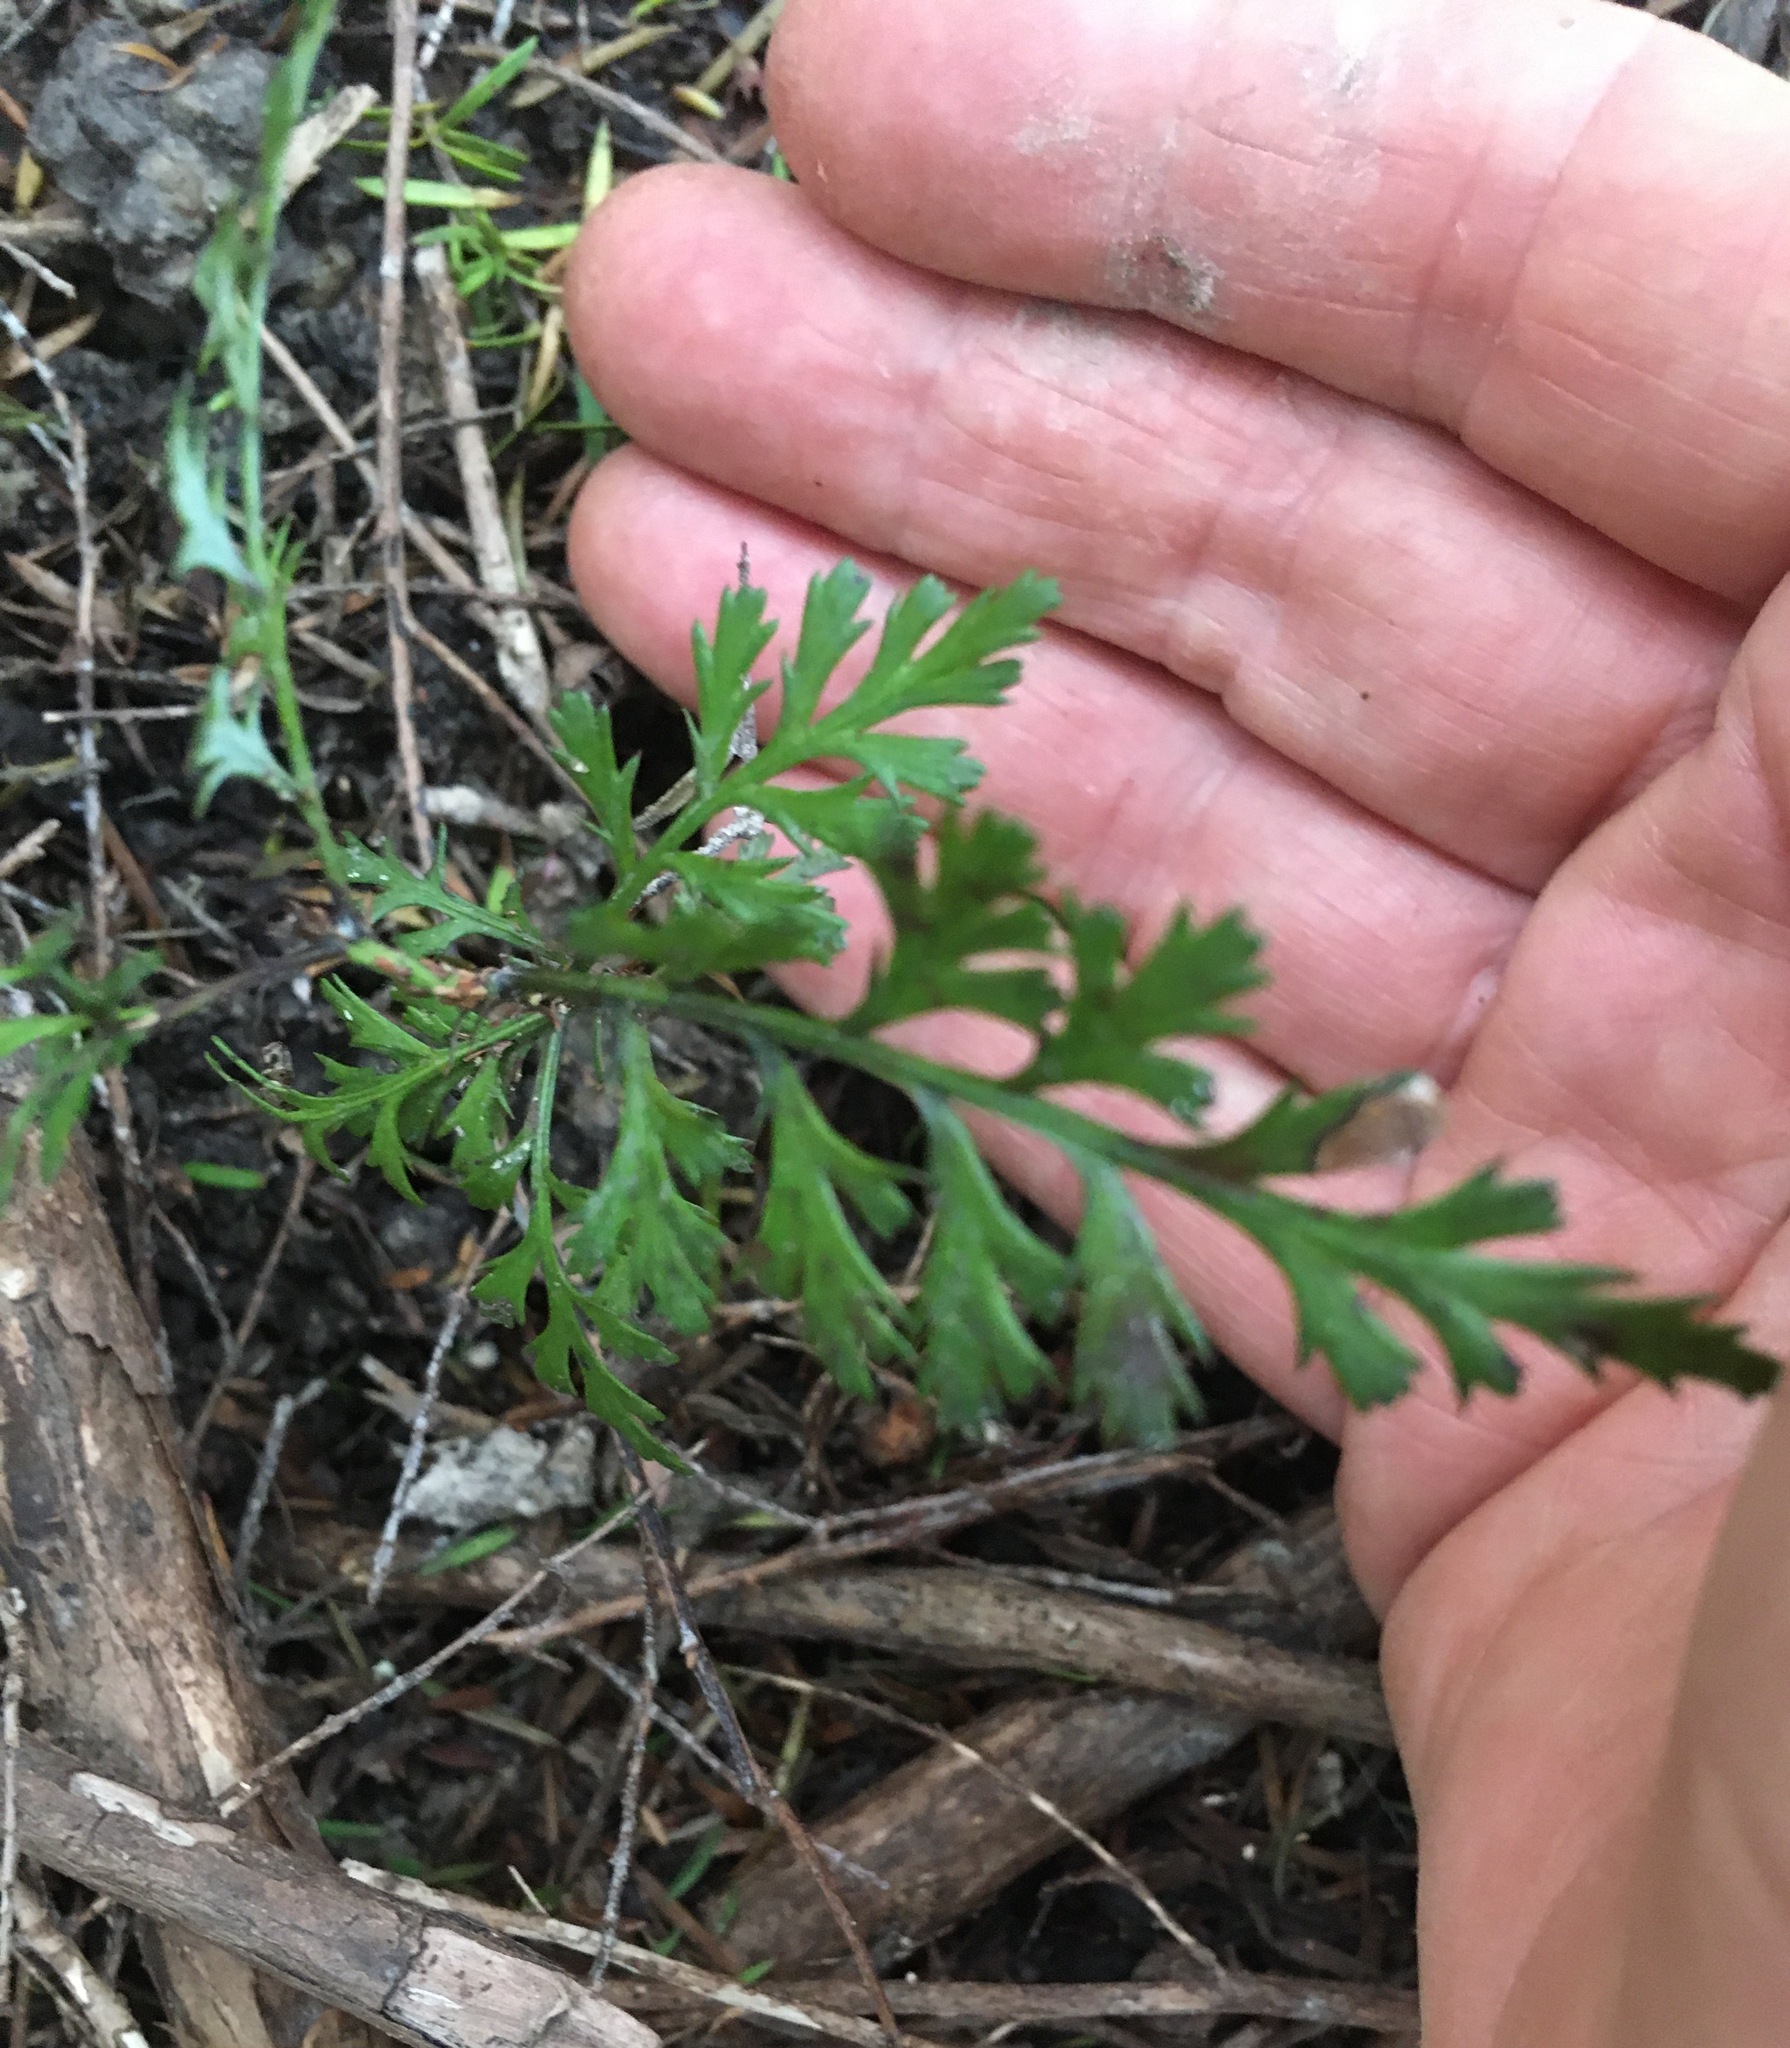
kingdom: Plantae
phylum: Tracheophyta
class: Pinopsida
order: Pinales
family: Phyllocladaceae
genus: Phyllocladus
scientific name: Phyllocladus trichomanoides
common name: Celery pine
